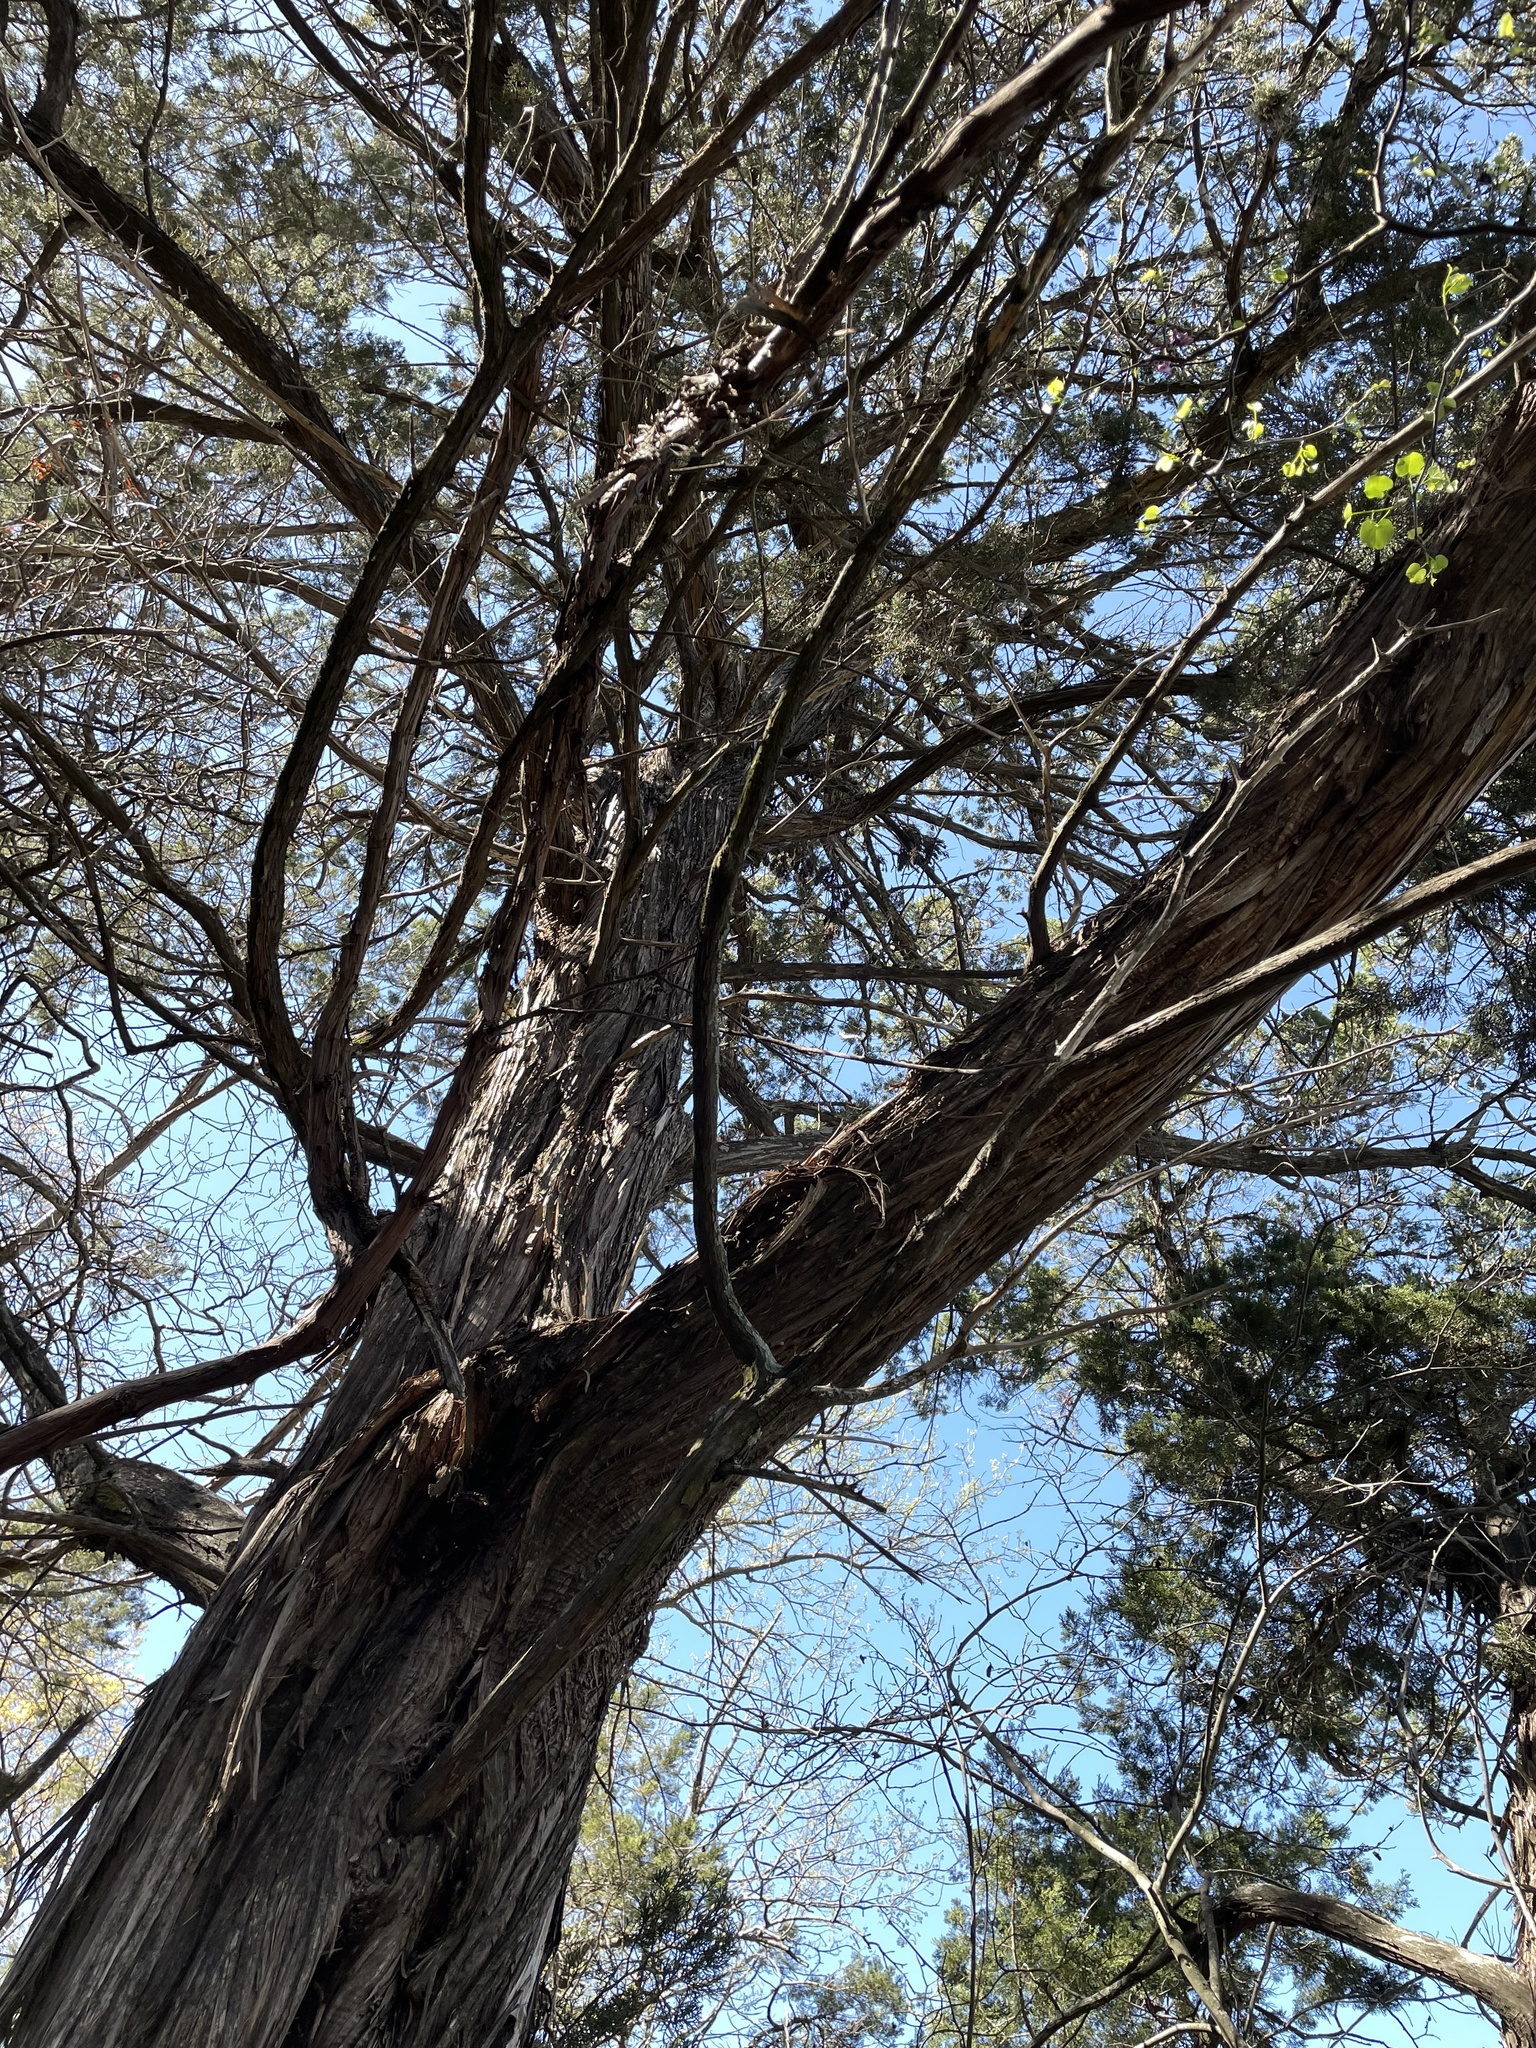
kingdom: Plantae
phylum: Tracheophyta
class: Pinopsida
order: Pinales
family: Cupressaceae
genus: Juniperus
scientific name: Juniperus ashei
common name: Mexican juniper
